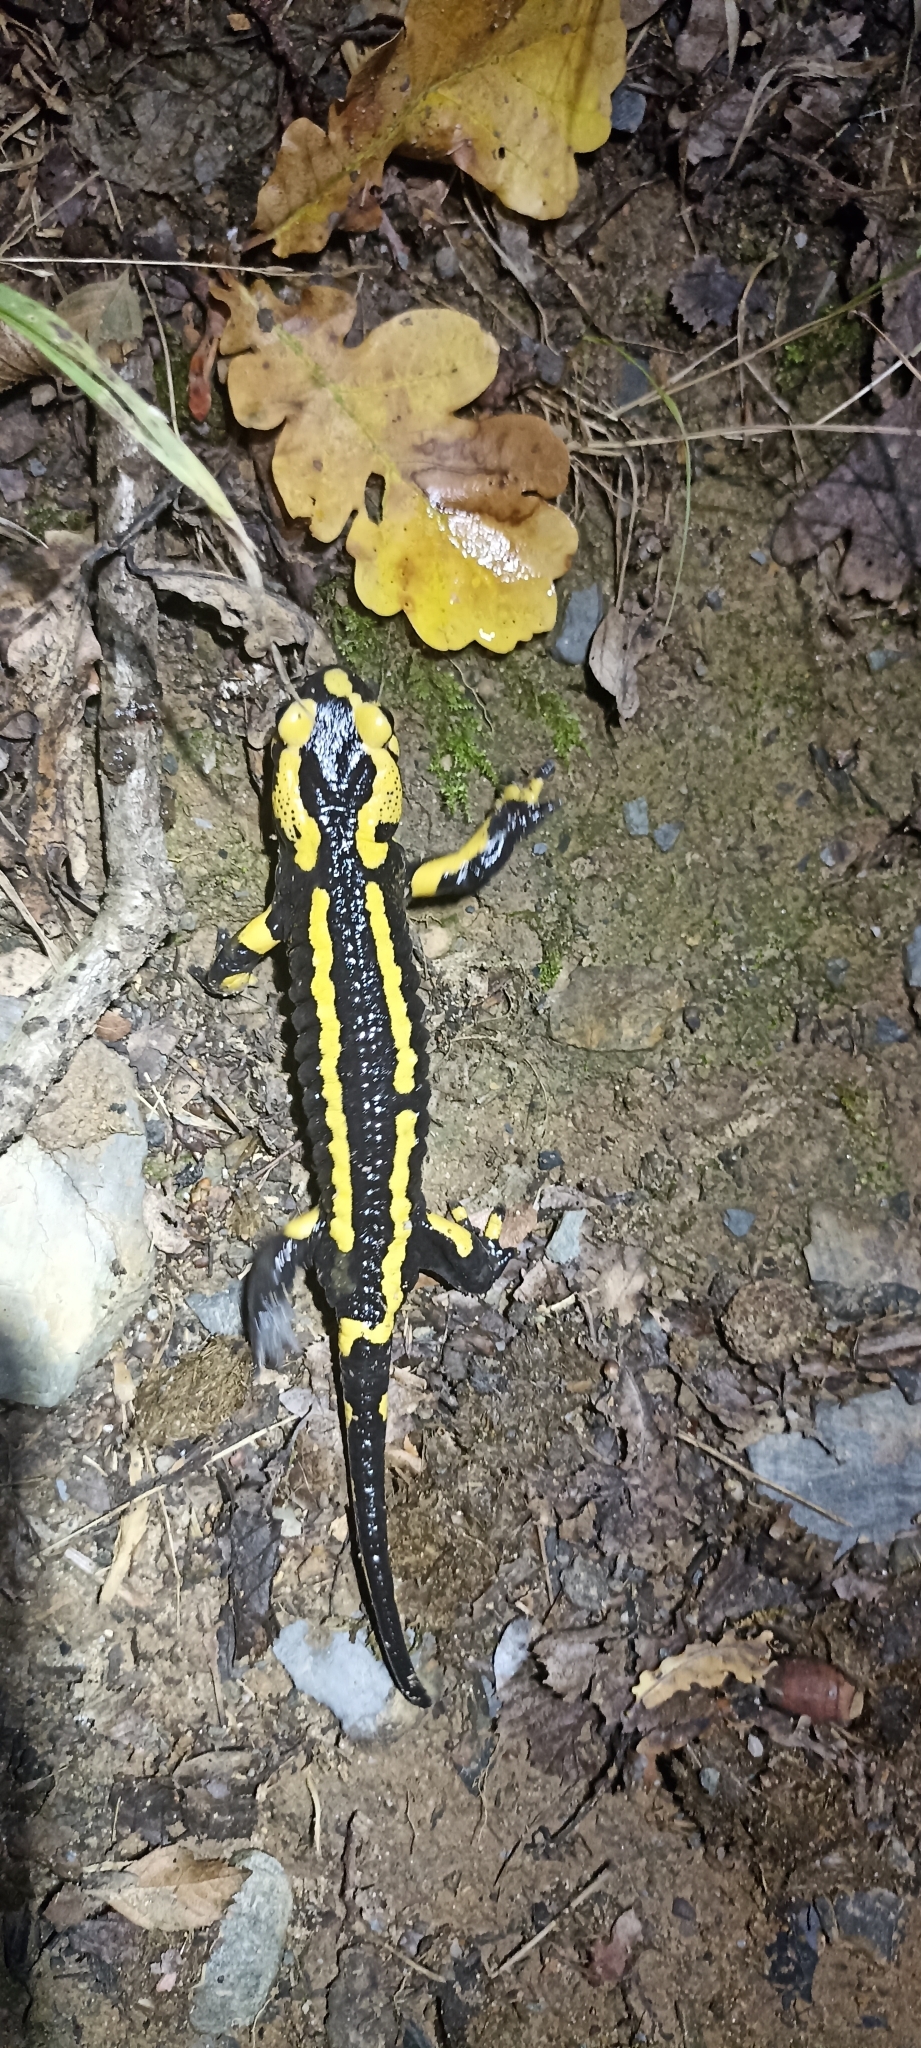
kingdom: Animalia
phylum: Chordata
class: Amphibia
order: Caudata
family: Salamandridae
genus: Salamandra
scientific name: Salamandra salamandra
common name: Fire salamander
